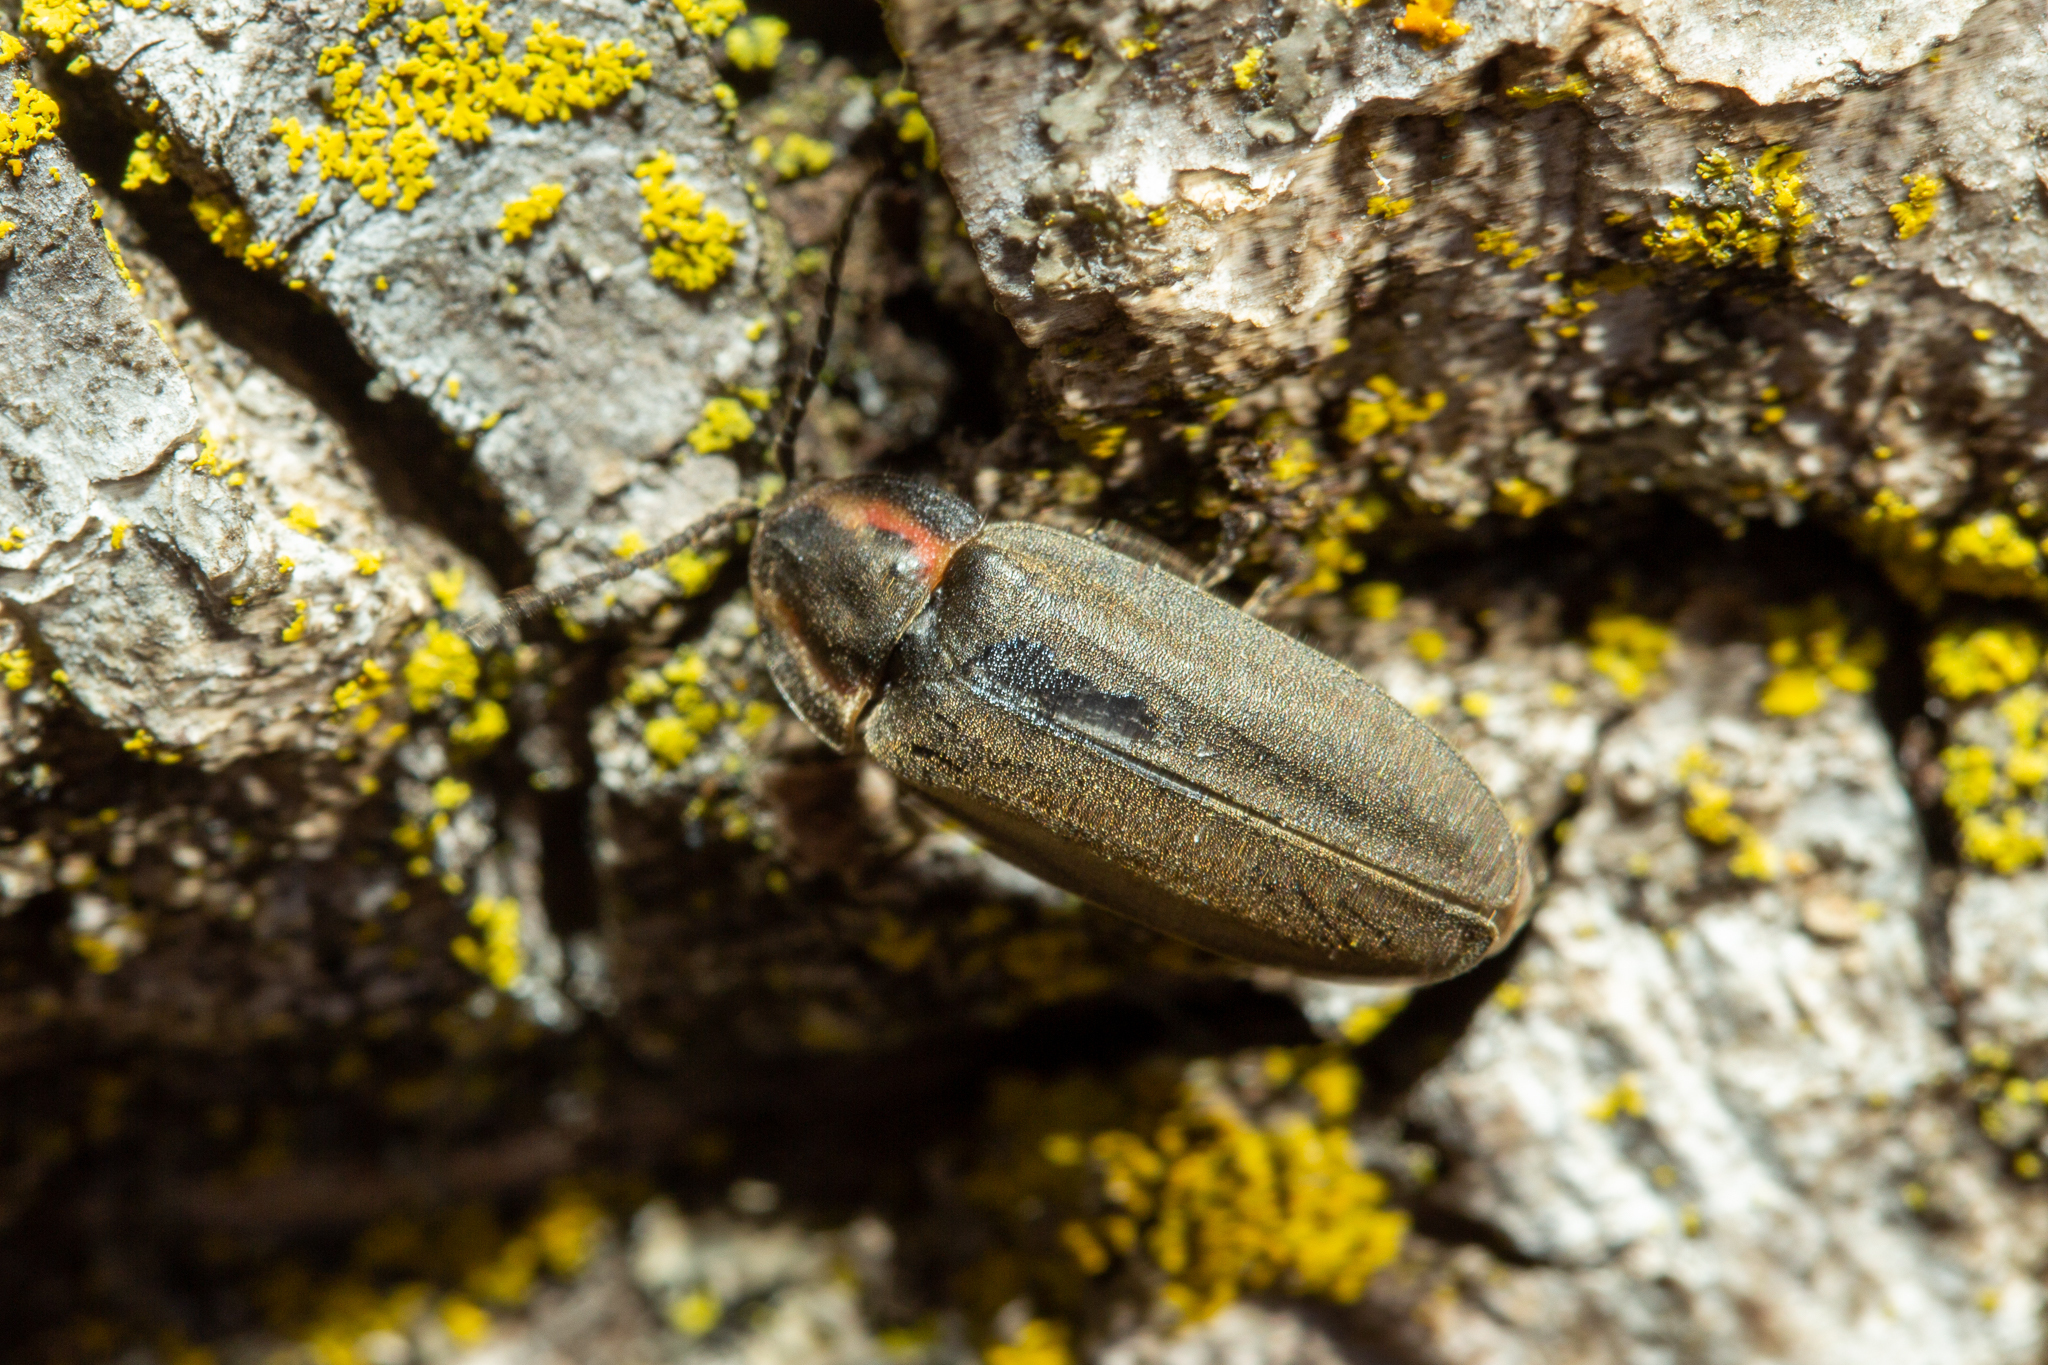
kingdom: Animalia
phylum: Arthropoda
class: Insecta
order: Coleoptera
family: Lampyridae
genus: Photinus
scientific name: Photinus corrusca
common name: Winter firefly
